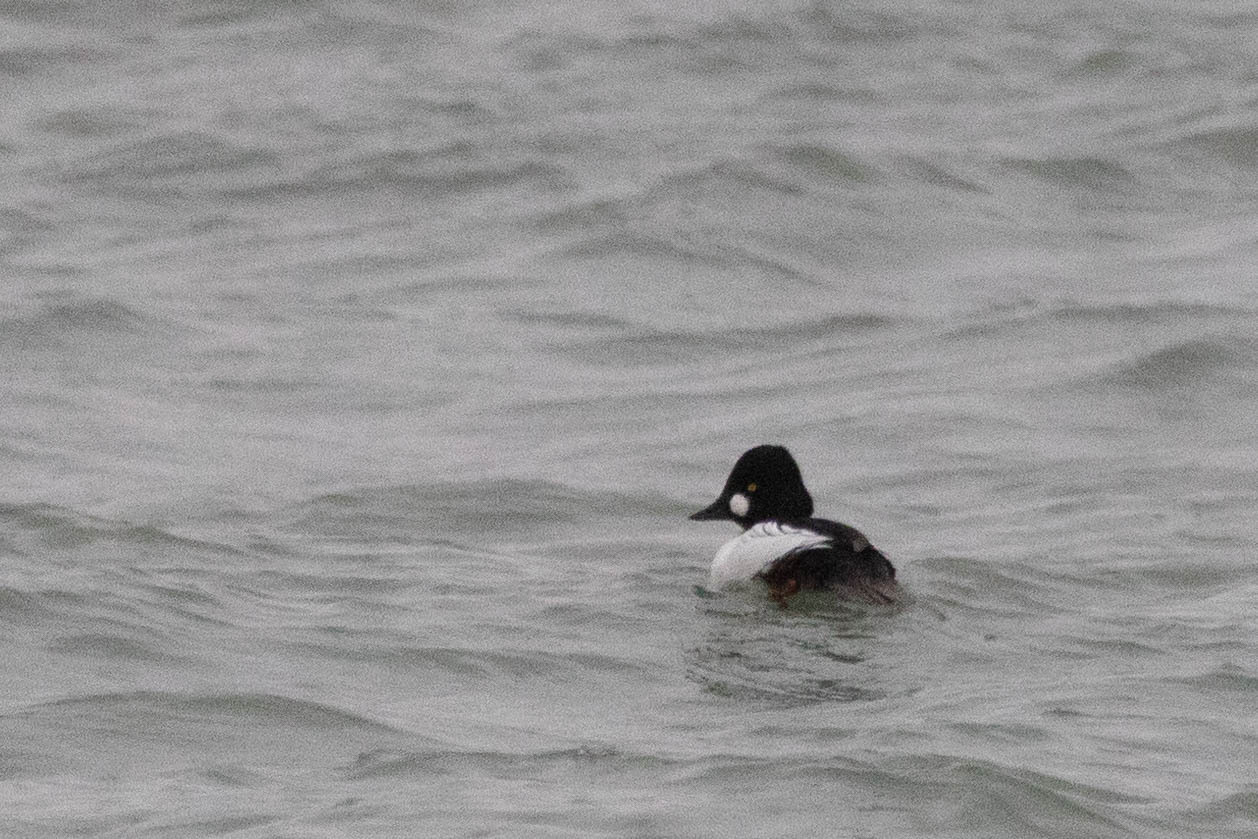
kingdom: Animalia
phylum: Chordata
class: Aves
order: Anseriformes
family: Anatidae
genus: Bucephala
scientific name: Bucephala clangula
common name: Common goldeneye
